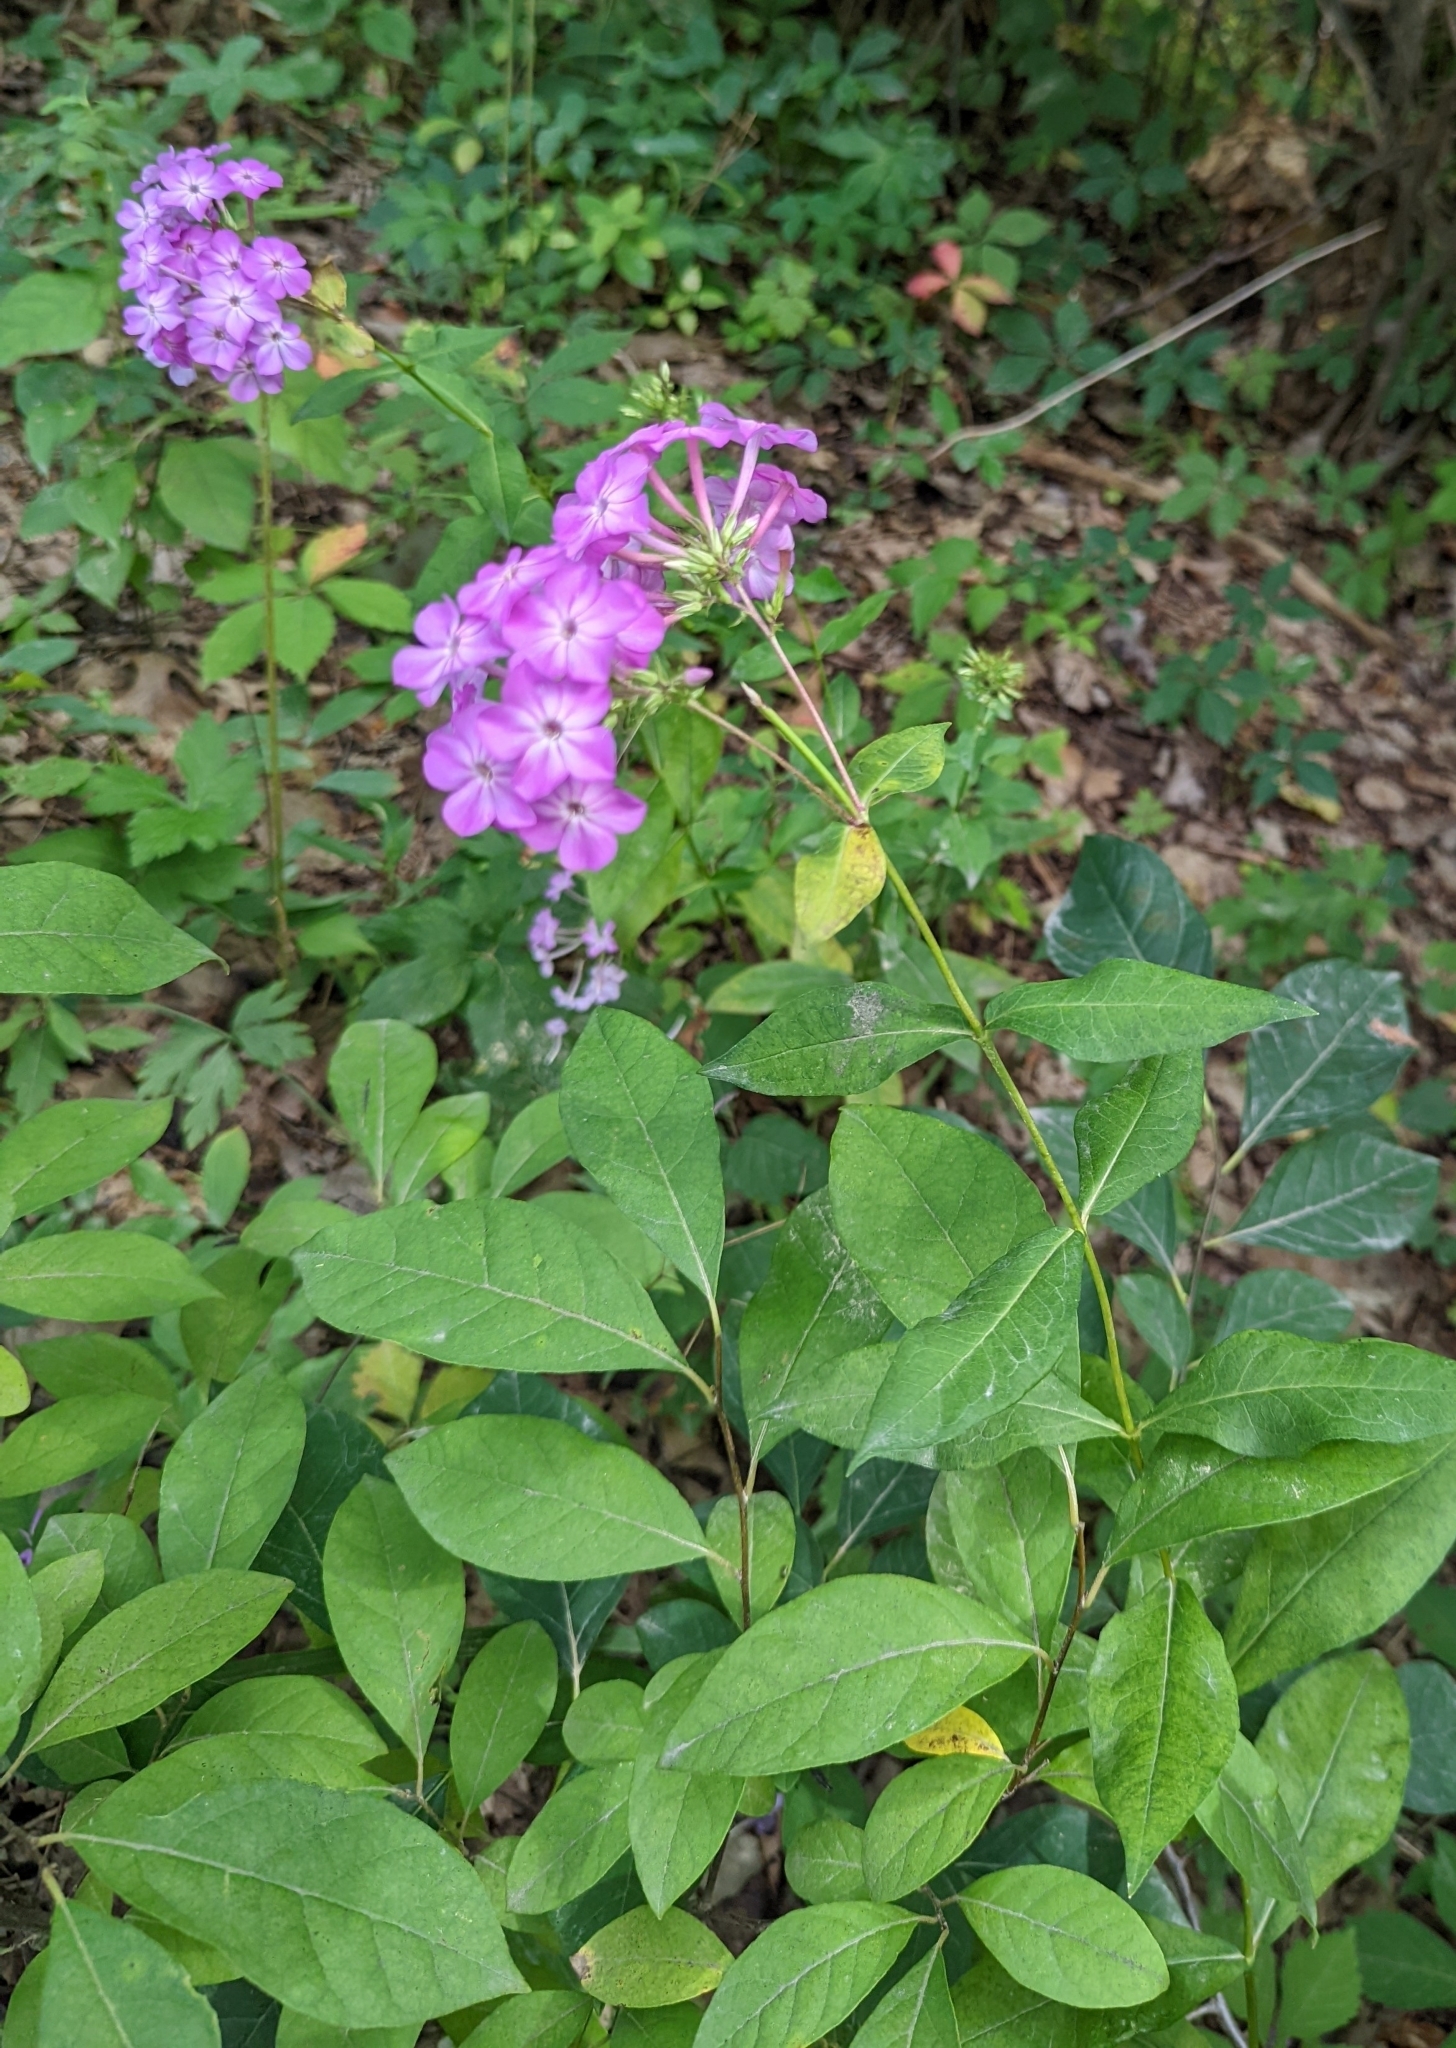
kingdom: Plantae
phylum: Tracheophyta
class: Magnoliopsida
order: Ericales
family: Polemoniaceae
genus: Phlox
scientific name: Phlox paniculata
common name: Fall phlox
